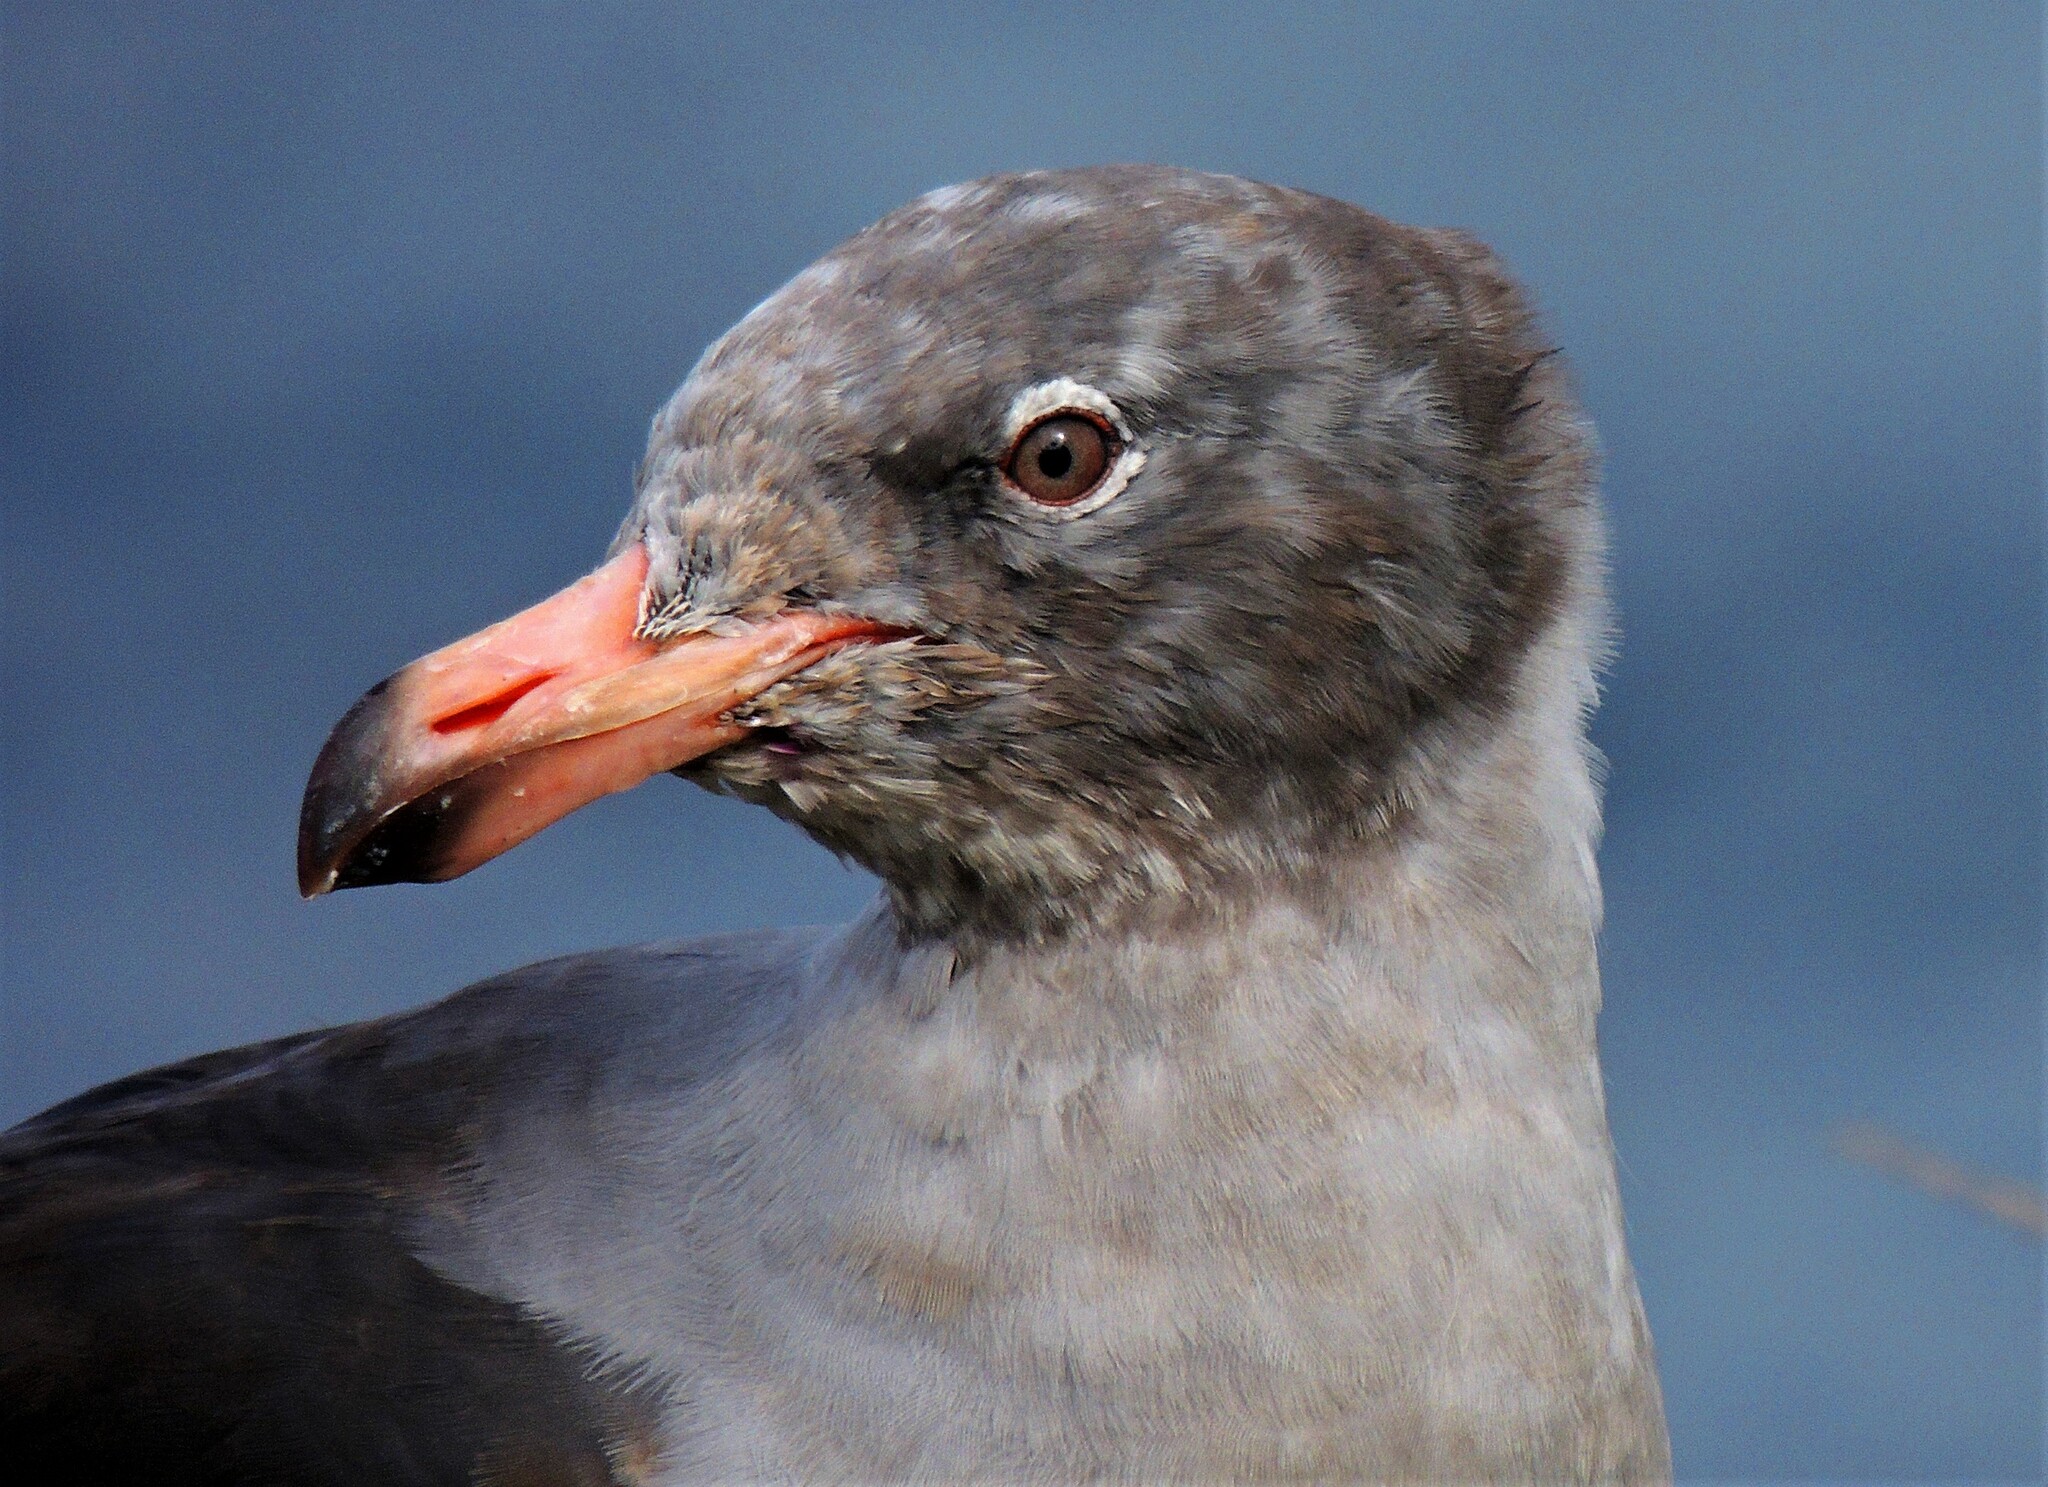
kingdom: Animalia
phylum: Chordata
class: Aves
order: Charadriiformes
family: Laridae
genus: Leucophaeus
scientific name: Leucophaeus scoresbii
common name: Dolphin gull
